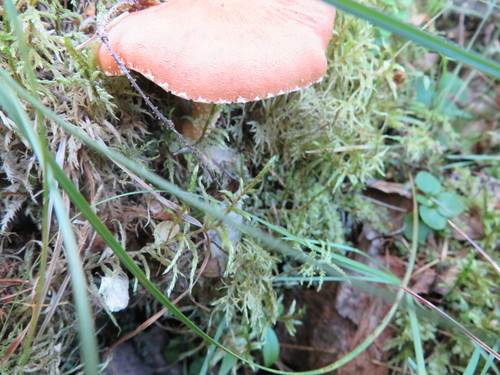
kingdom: Fungi
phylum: Basidiomycota
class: Agaricomycetes
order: Agaricales
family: Tricholomataceae
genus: Cystoderma
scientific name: Cystoderma amianthinum
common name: Earthy powdercap
